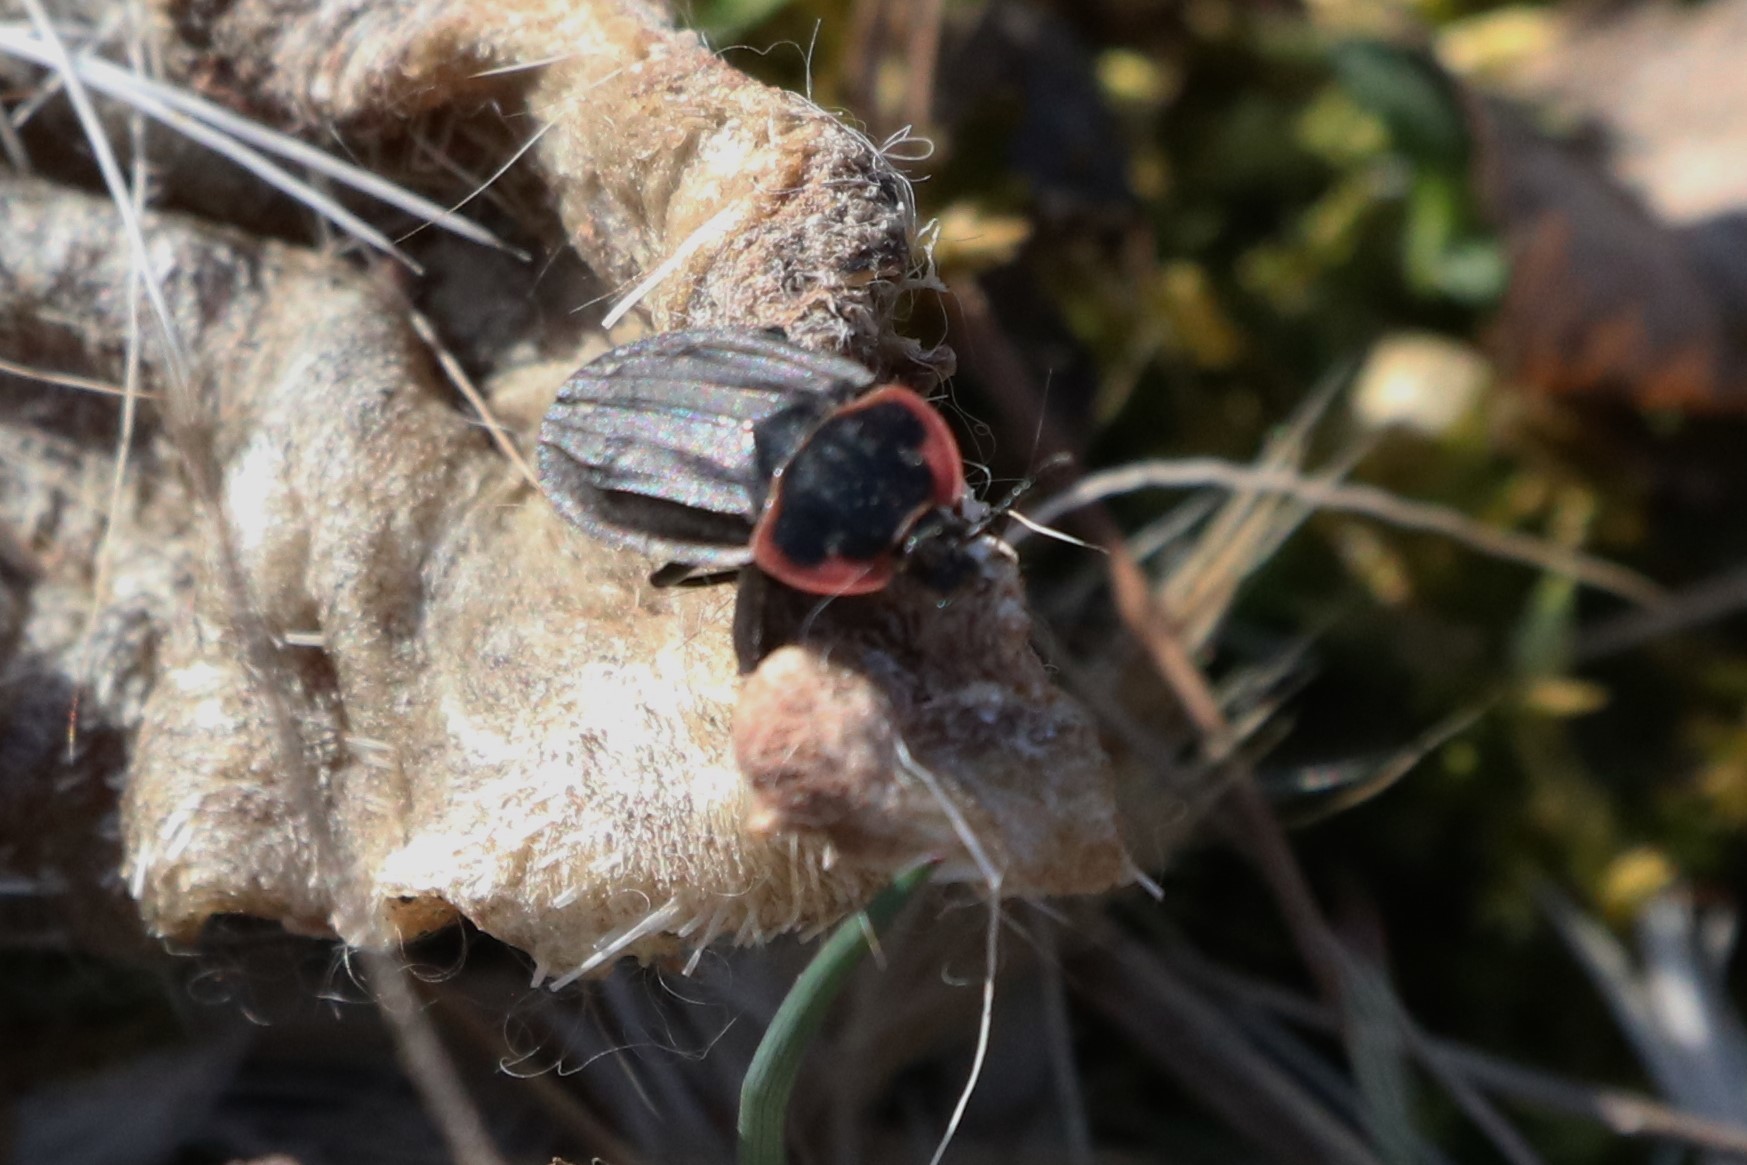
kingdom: Animalia
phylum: Arthropoda
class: Insecta
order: Coleoptera
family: Staphylinidae
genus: Oiceoptoma
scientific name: Oiceoptoma noveboracense
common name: Margined carrion beetle
